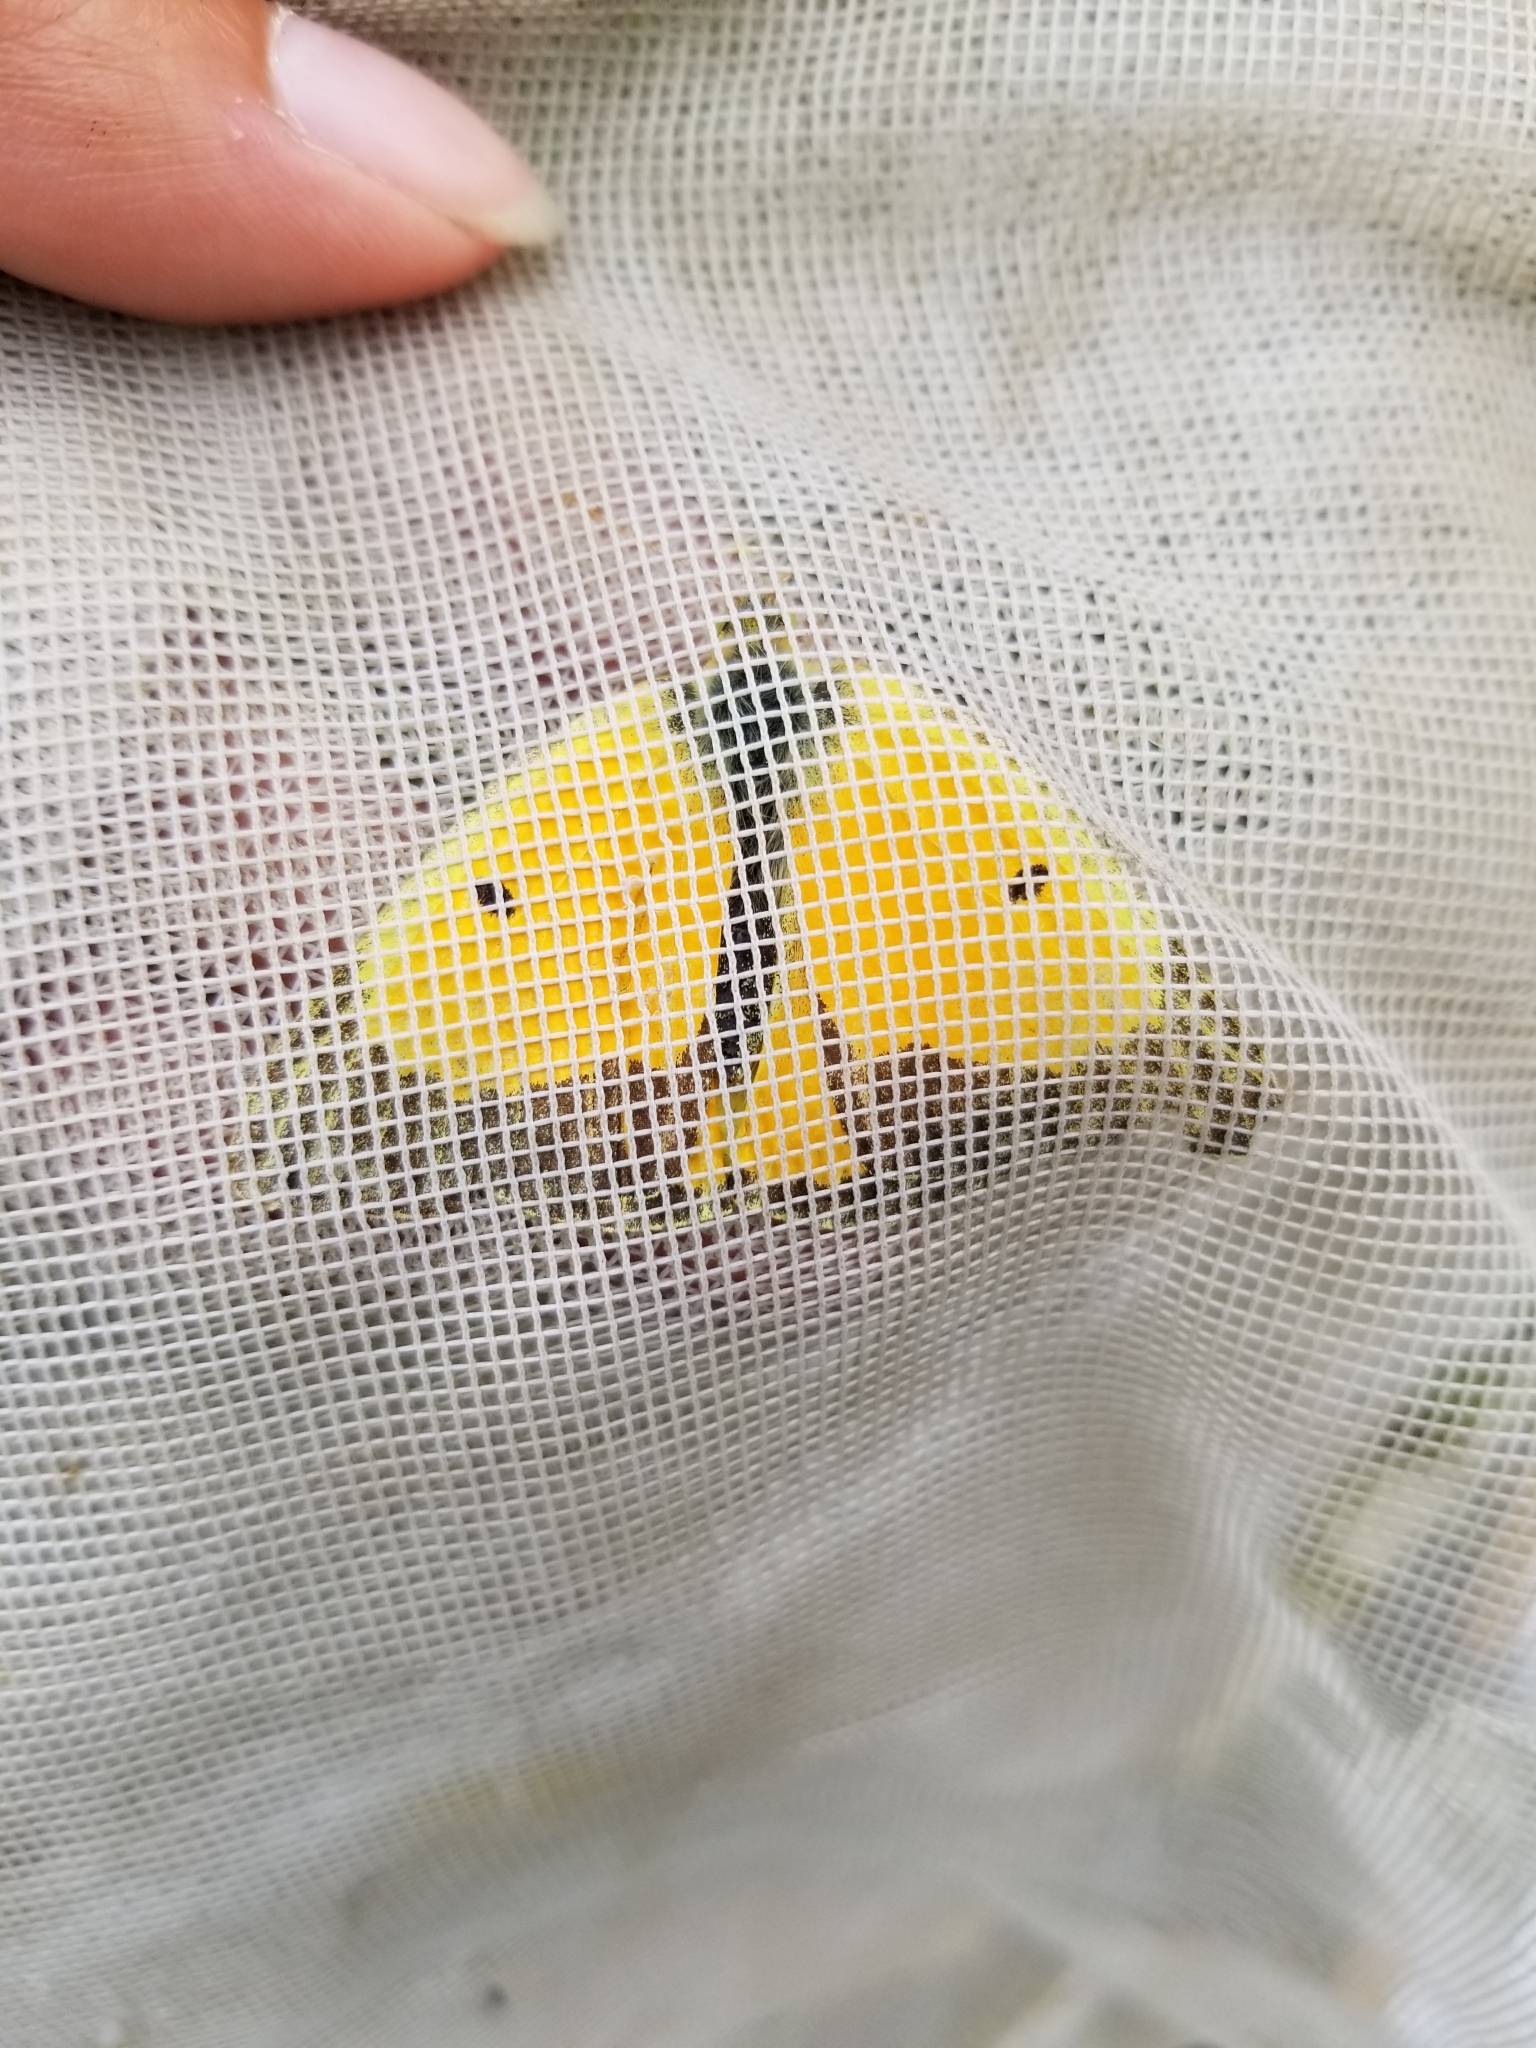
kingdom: Animalia
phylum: Arthropoda
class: Insecta
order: Lepidoptera
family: Pieridae
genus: Colias
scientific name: Colias eurytheme
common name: Alfalfa butterfly
